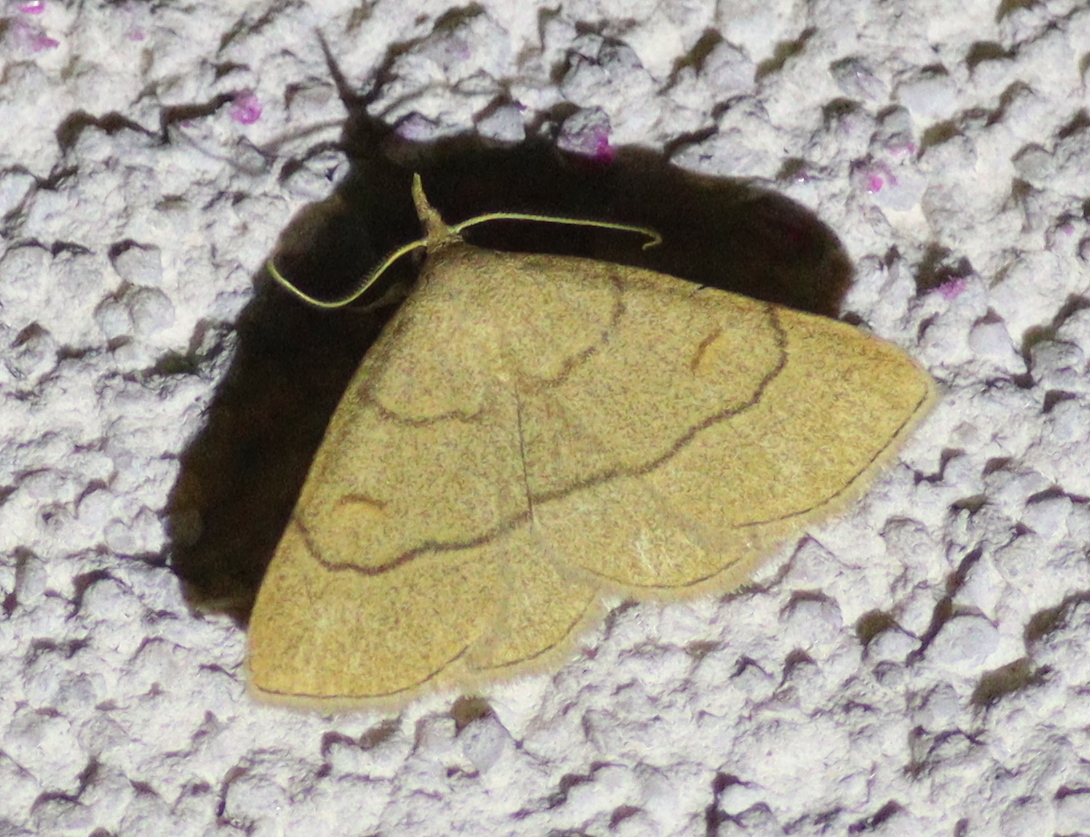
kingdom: Animalia
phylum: Arthropoda
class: Insecta
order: Lepidoptera
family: Erebidae
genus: Paracolax
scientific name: Paracolax tristalis
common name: Clay fan-foot
